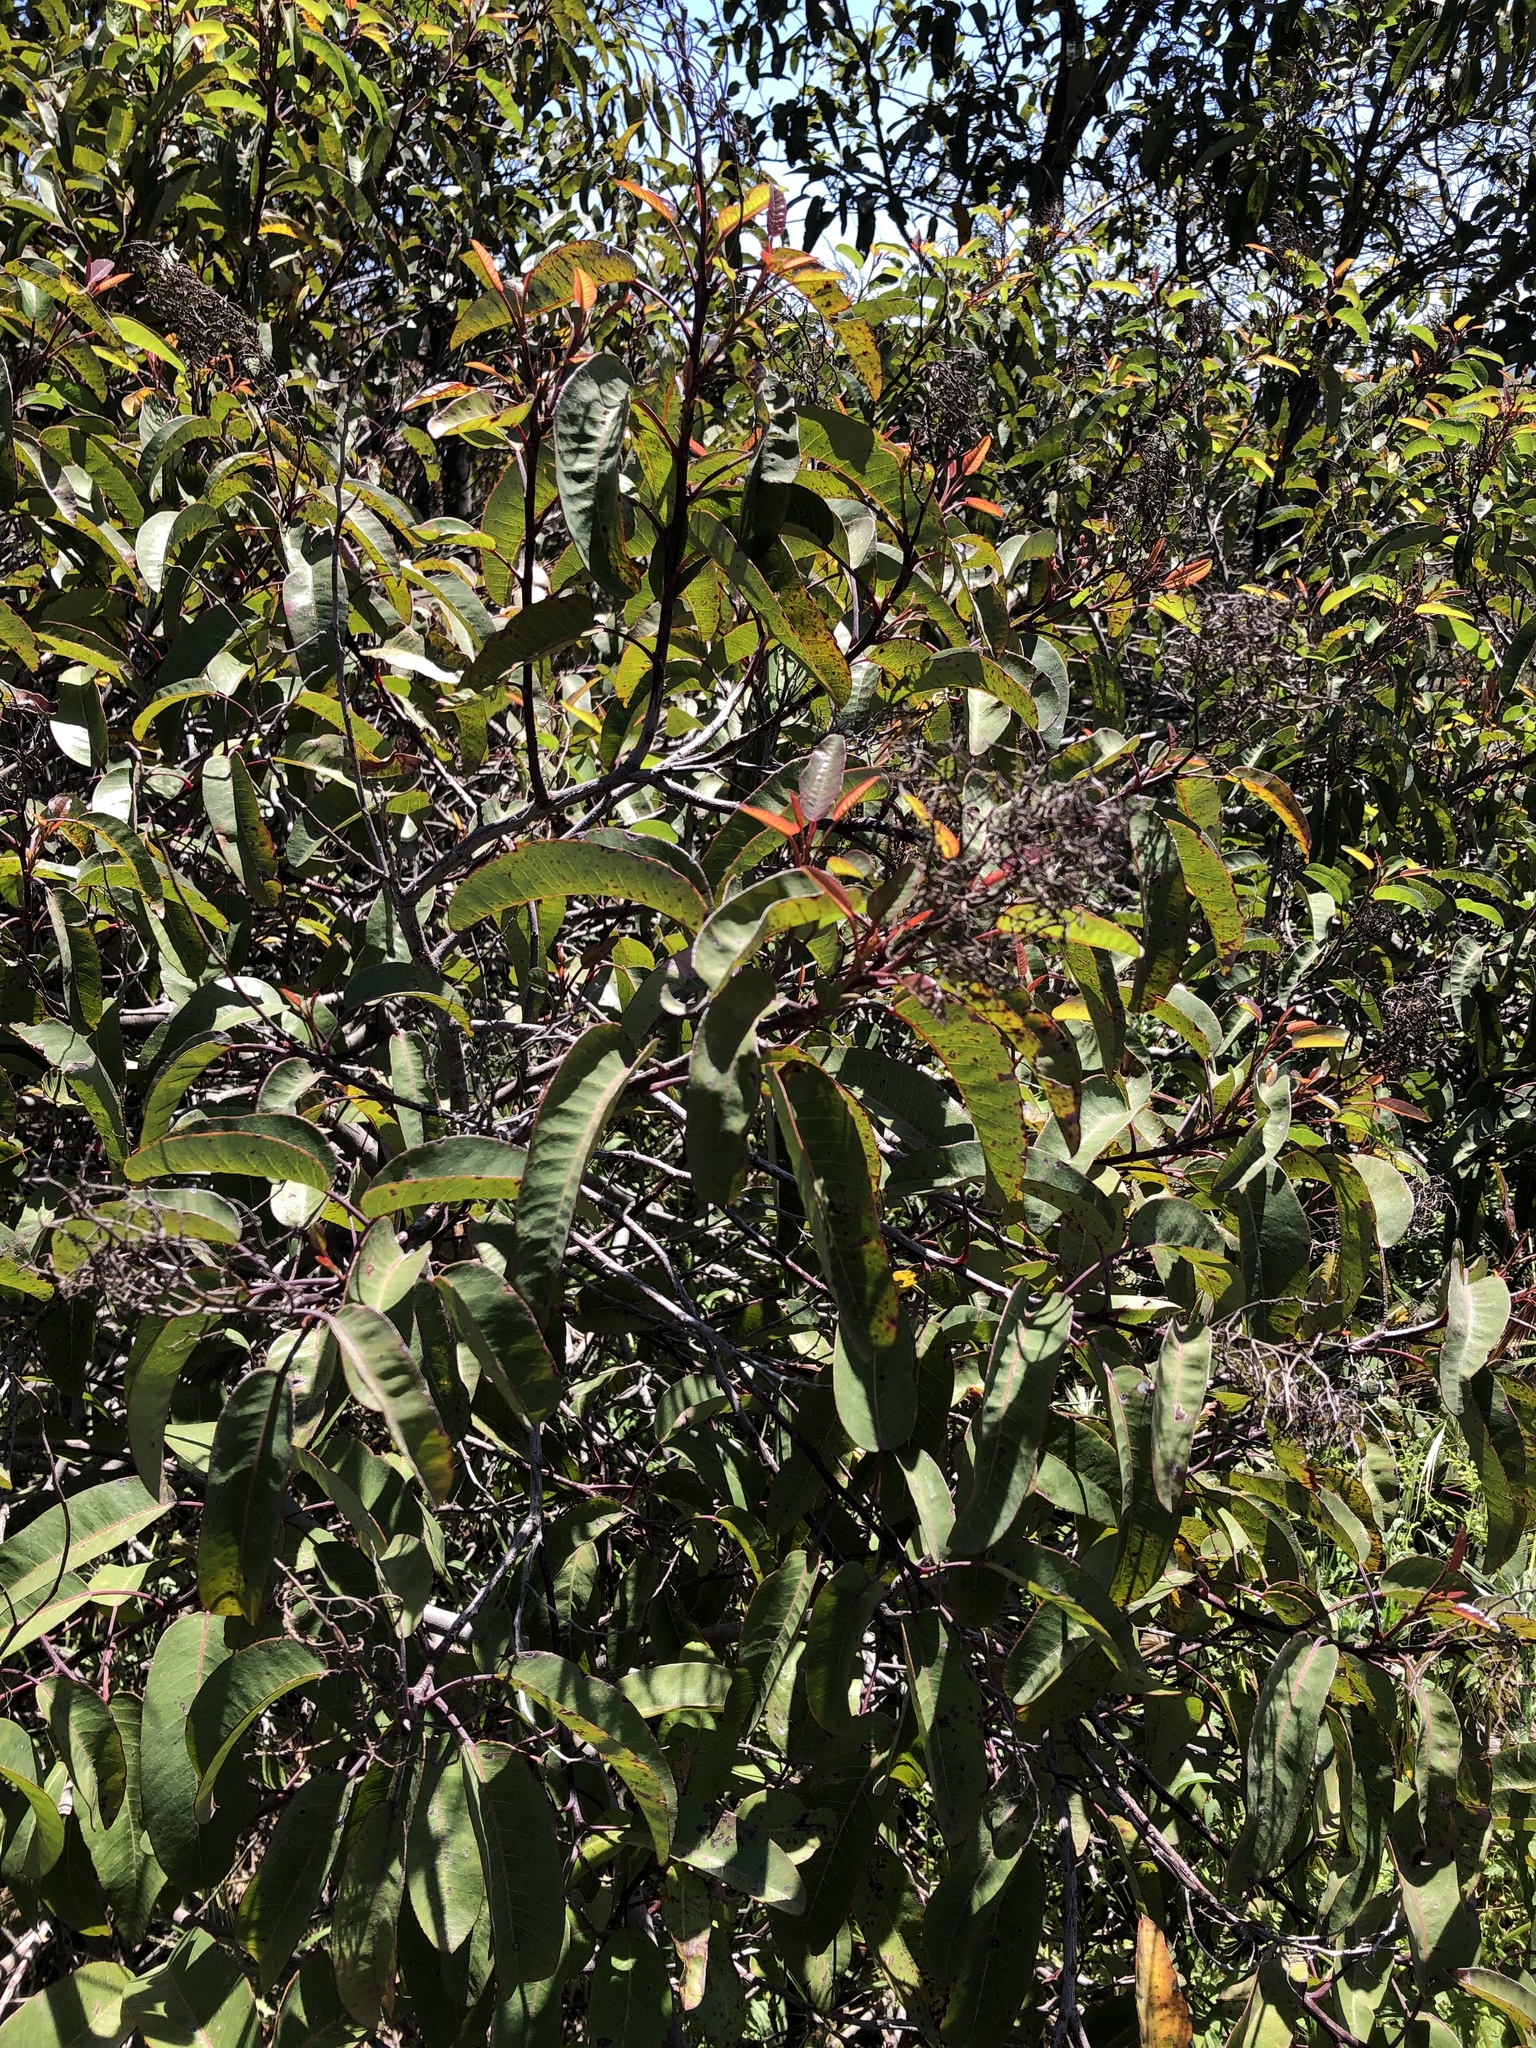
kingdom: Plantae
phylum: Tracheophyta
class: Magnoliopsida
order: Sapindales
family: Anacardiaceae
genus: Malosma
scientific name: Malosma laurina
